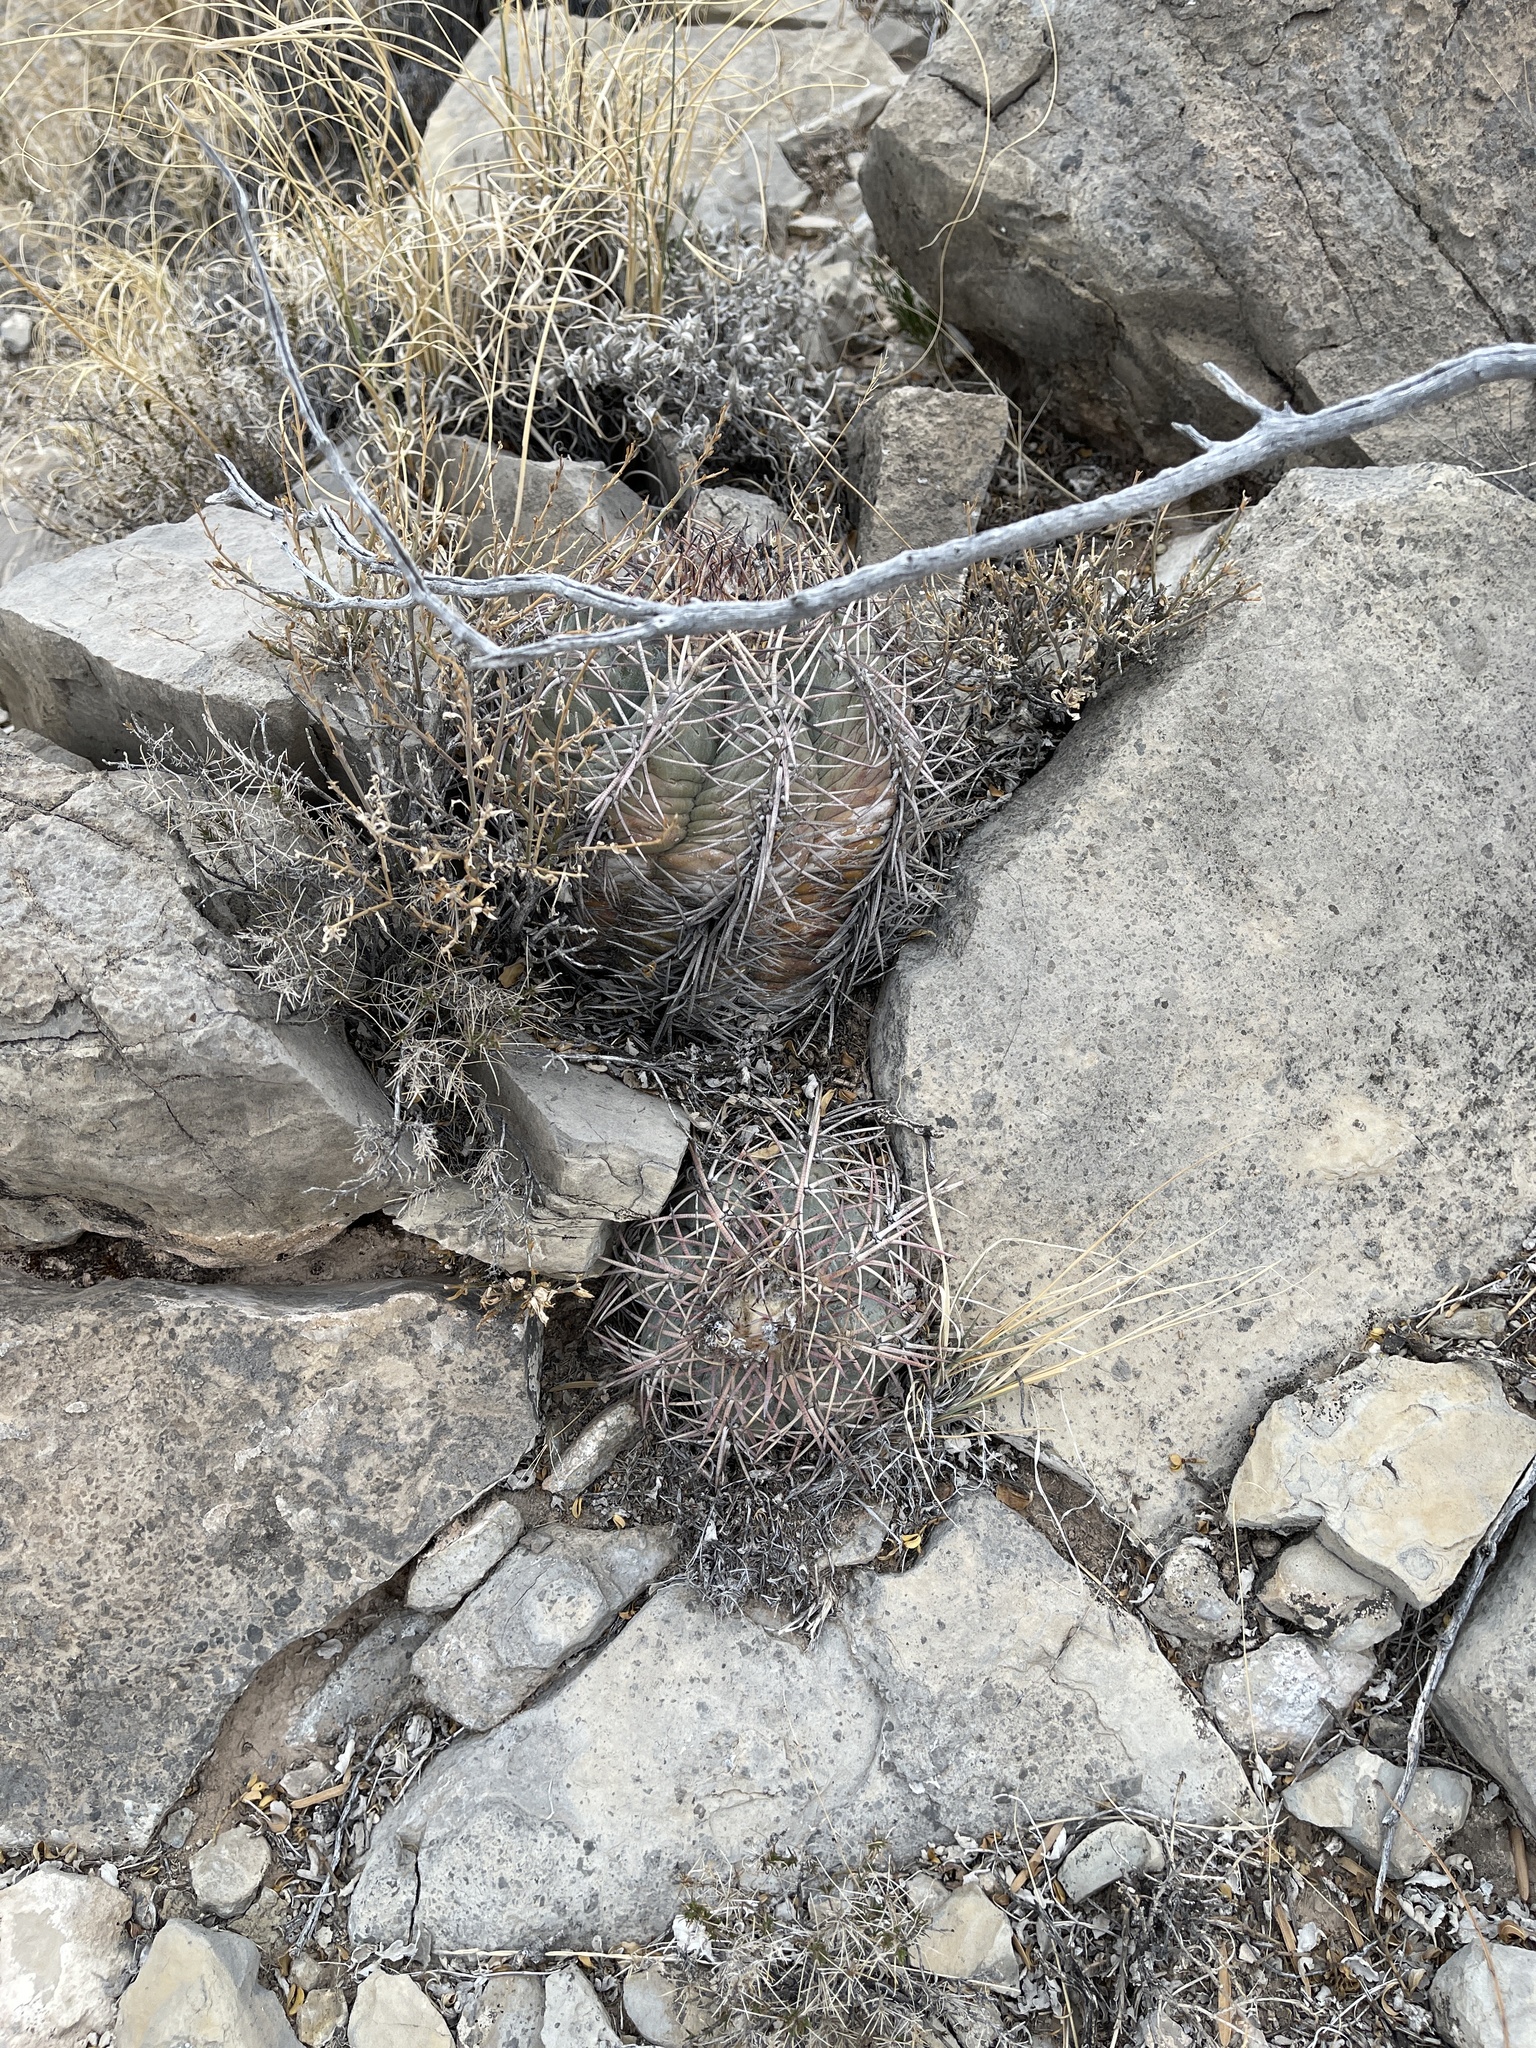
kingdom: Plantae
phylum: Tracheophyta
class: Magnoliopsida
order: Caryophyllales
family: Cactaceae
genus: Echinocactus
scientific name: Echinocactus horizonthalonius
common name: Devilshead
